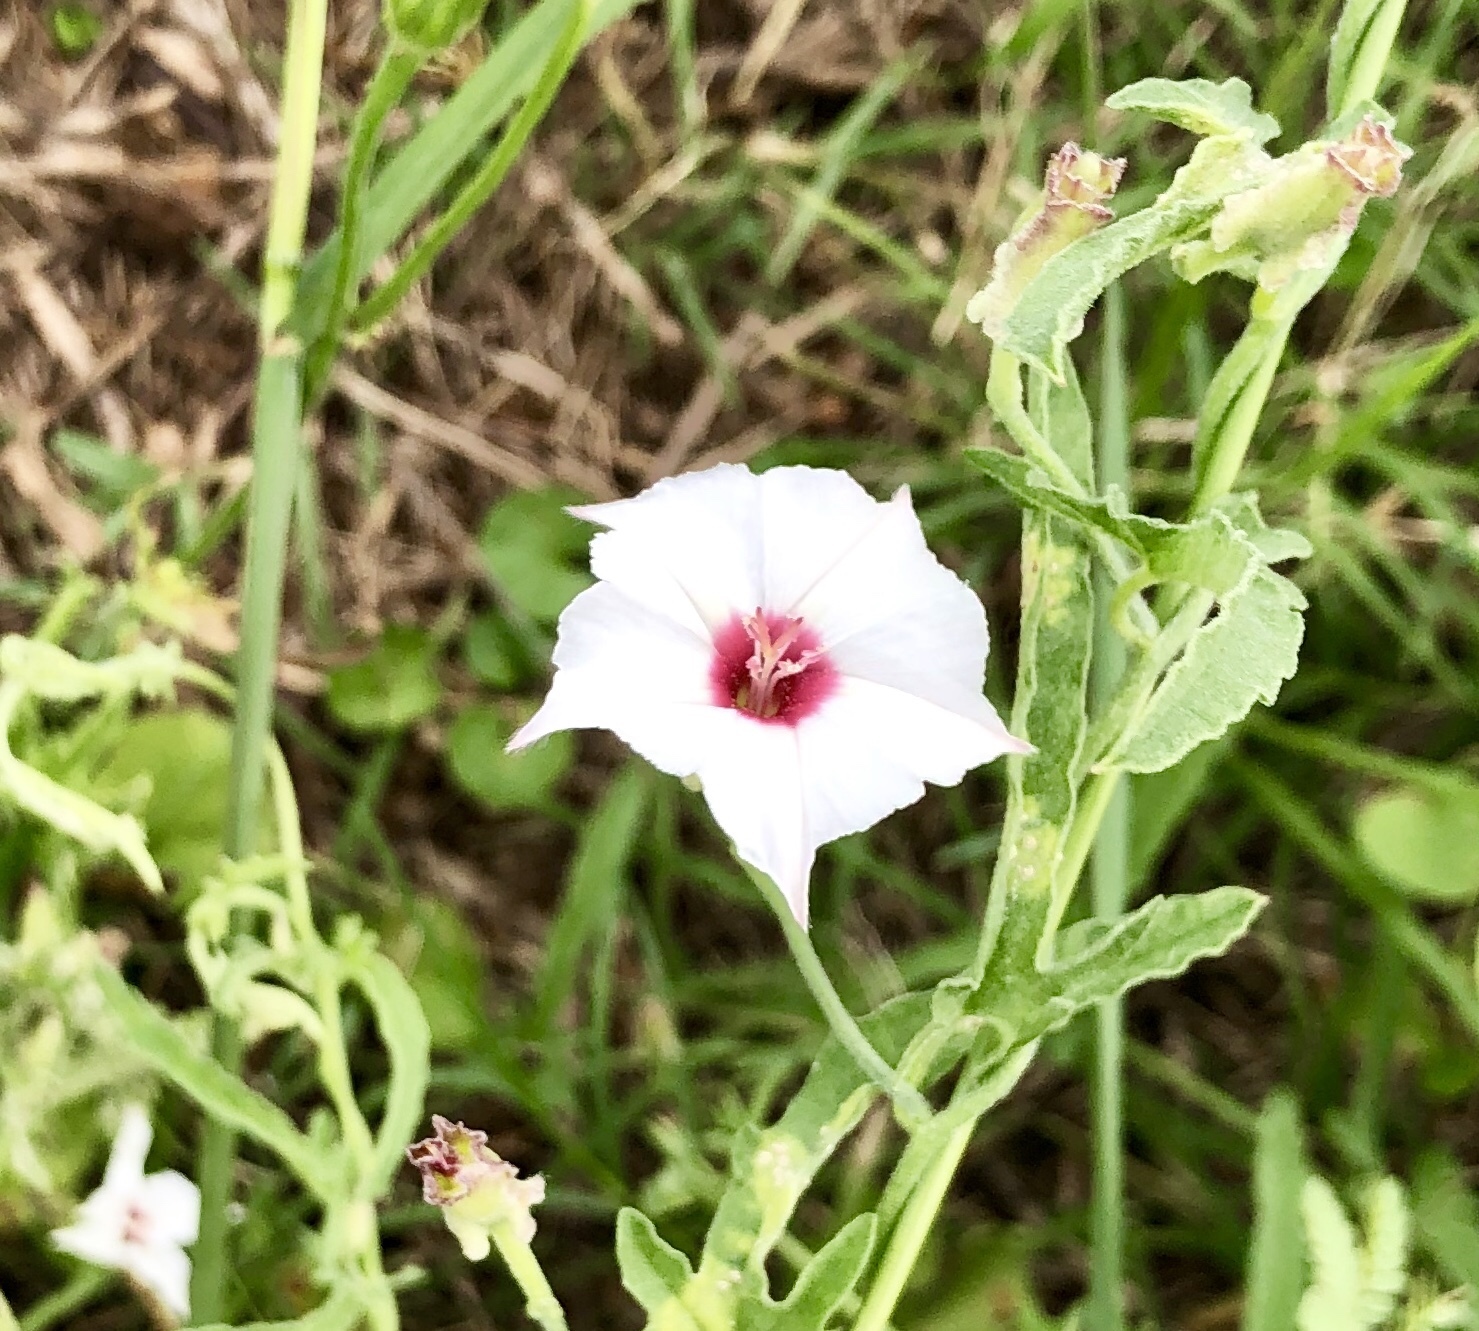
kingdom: Plantae
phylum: Tracheophyta
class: Magnoliopsida
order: Solanales
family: Convolvulaceae
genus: Convolvulus
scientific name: Convolvulus equitans
